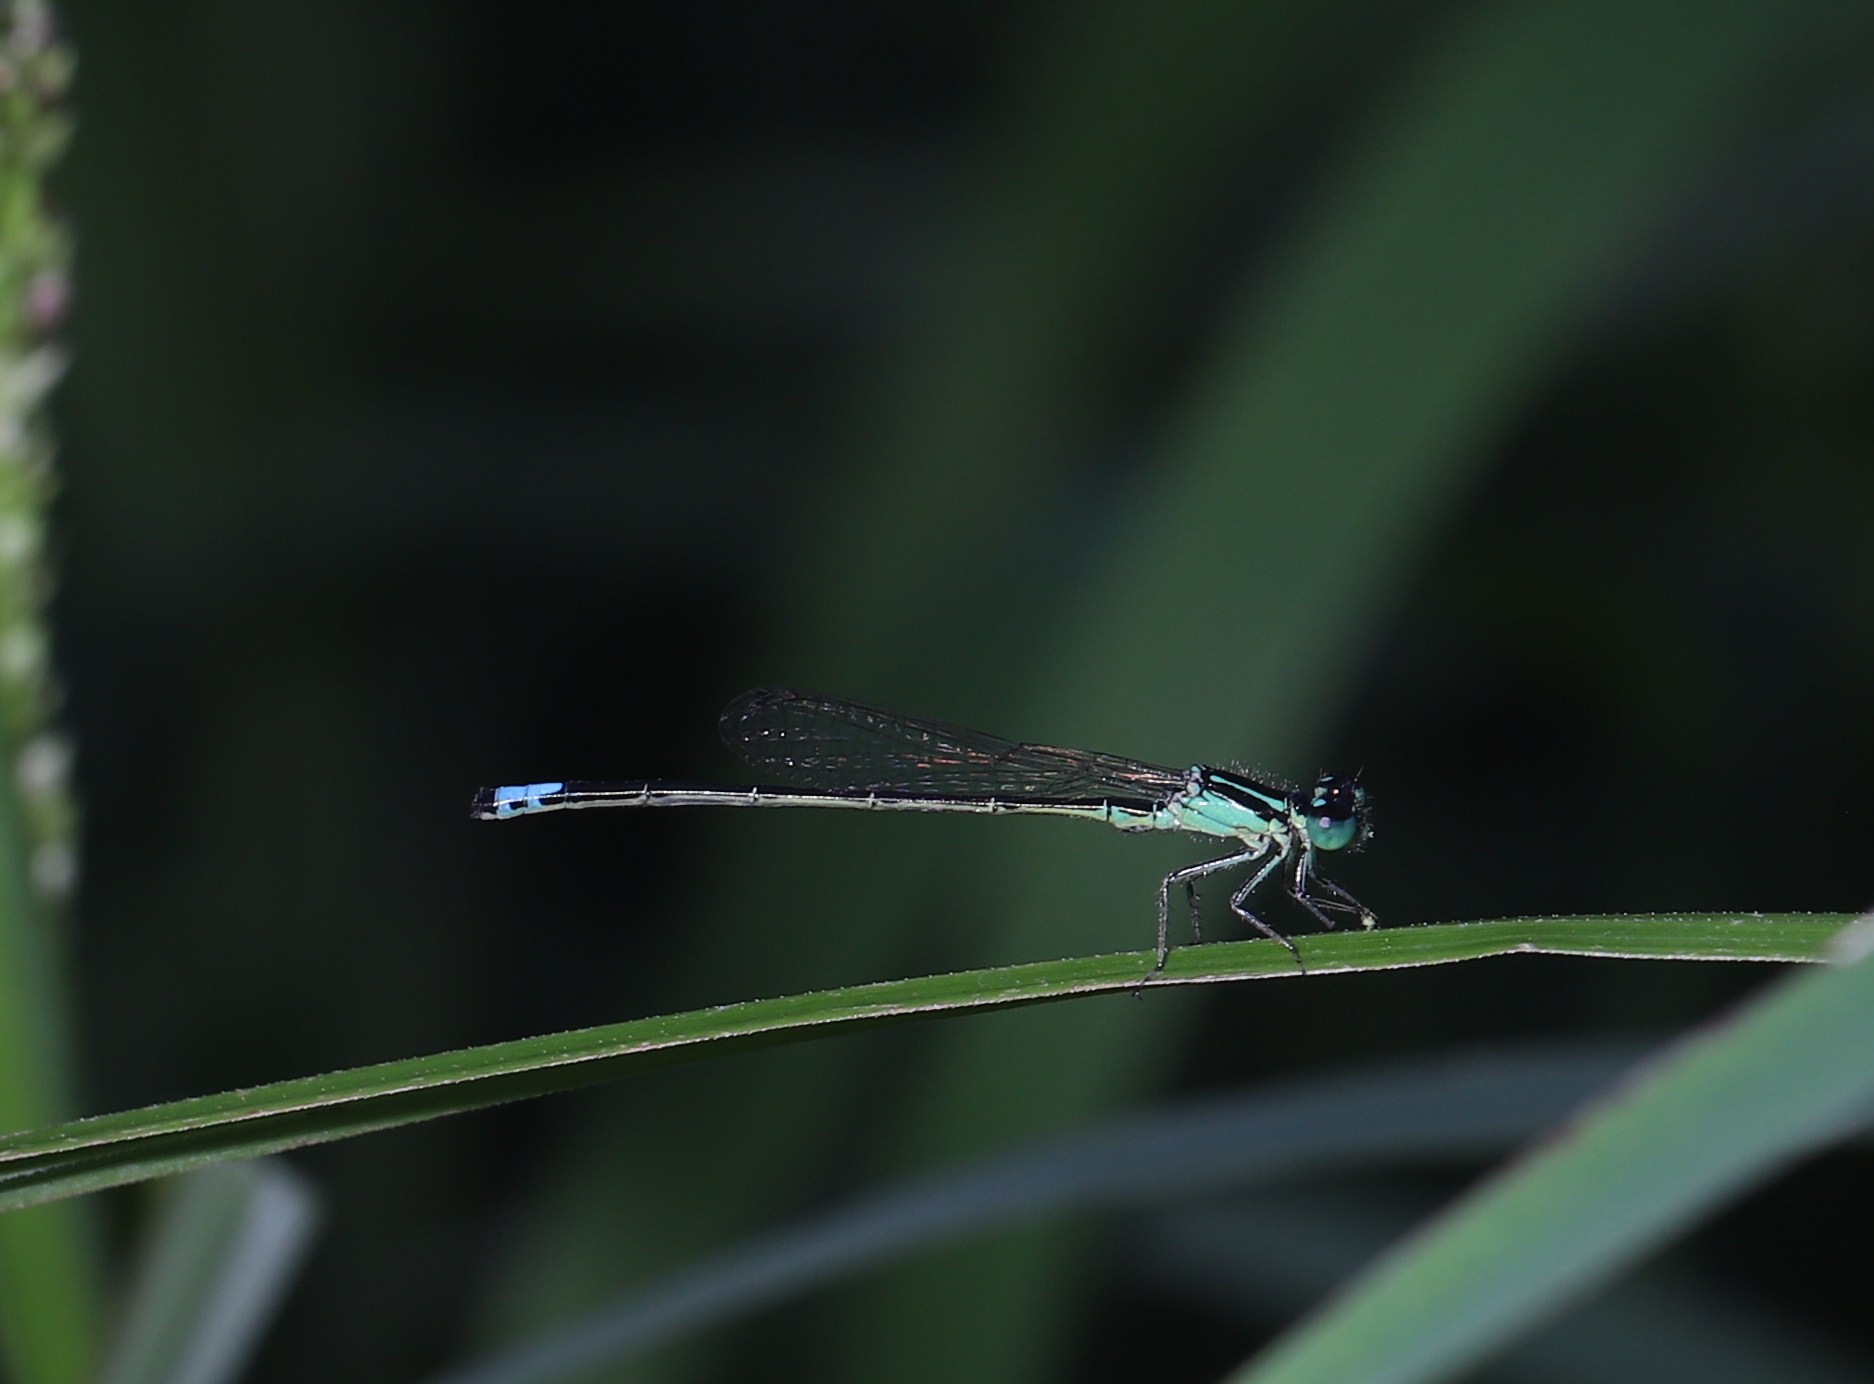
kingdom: Animalia
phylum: Arthropoda
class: Insecta
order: Odonata
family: Coenagrionidae
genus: Ischnura
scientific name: Ischnura verticalis
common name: Eastern forktail
